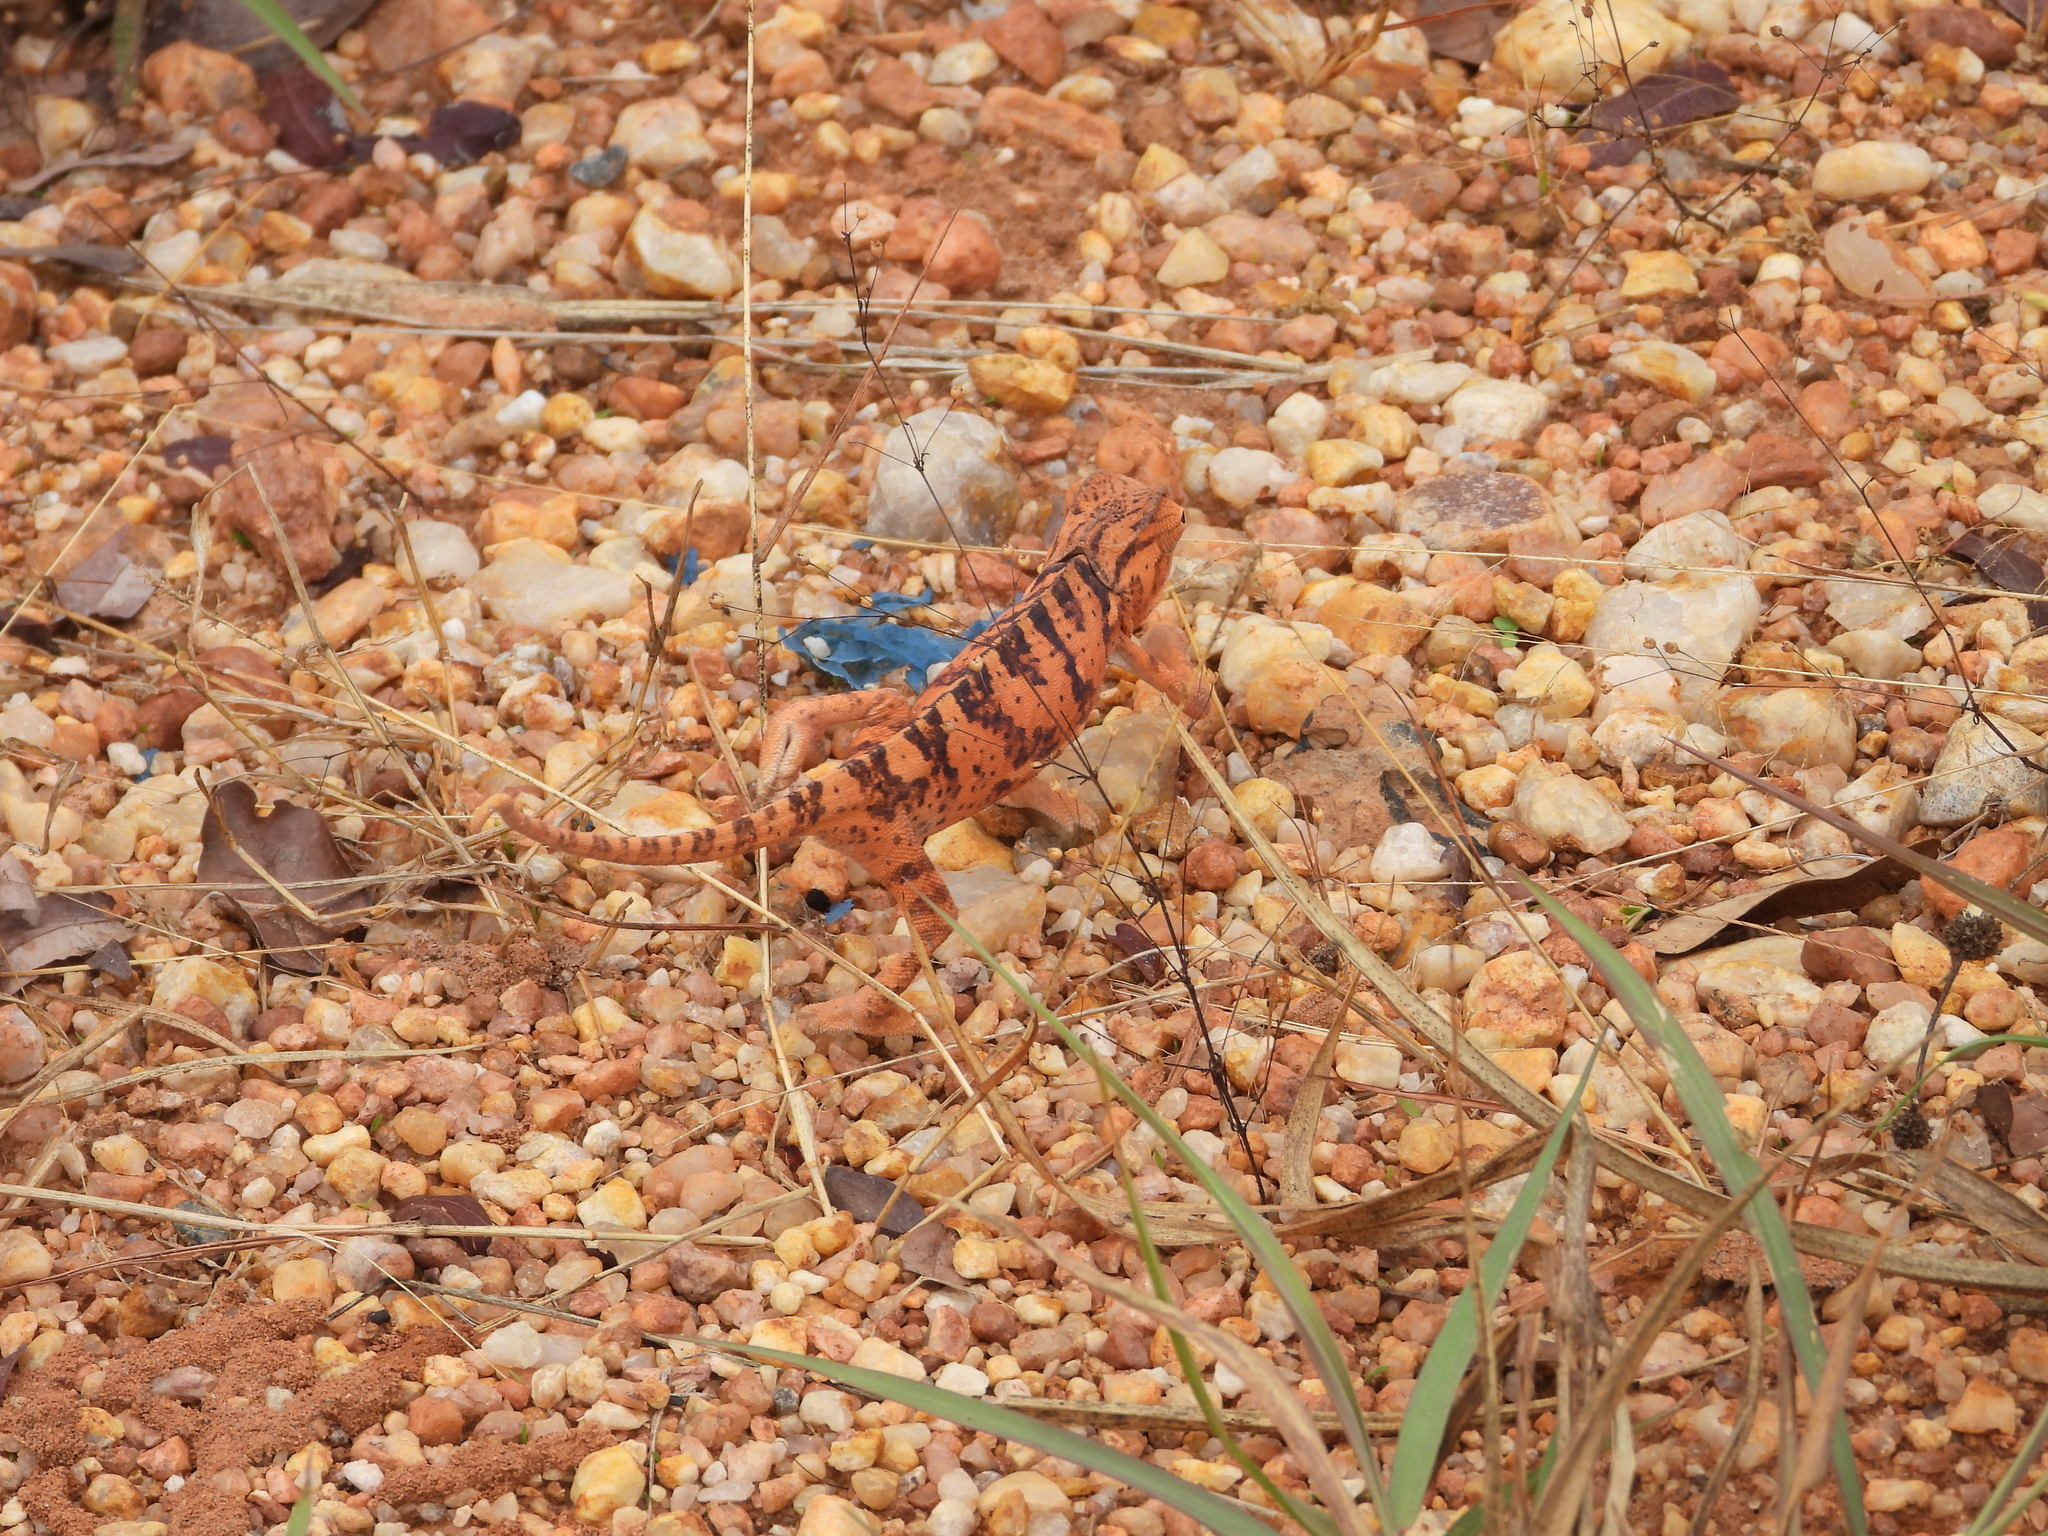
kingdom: Animalia
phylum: Chordata
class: Squamata
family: Chamaeleonidae
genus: Chamaeleo
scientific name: Chamaeleo dilepis
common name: Flapneck chameleon
